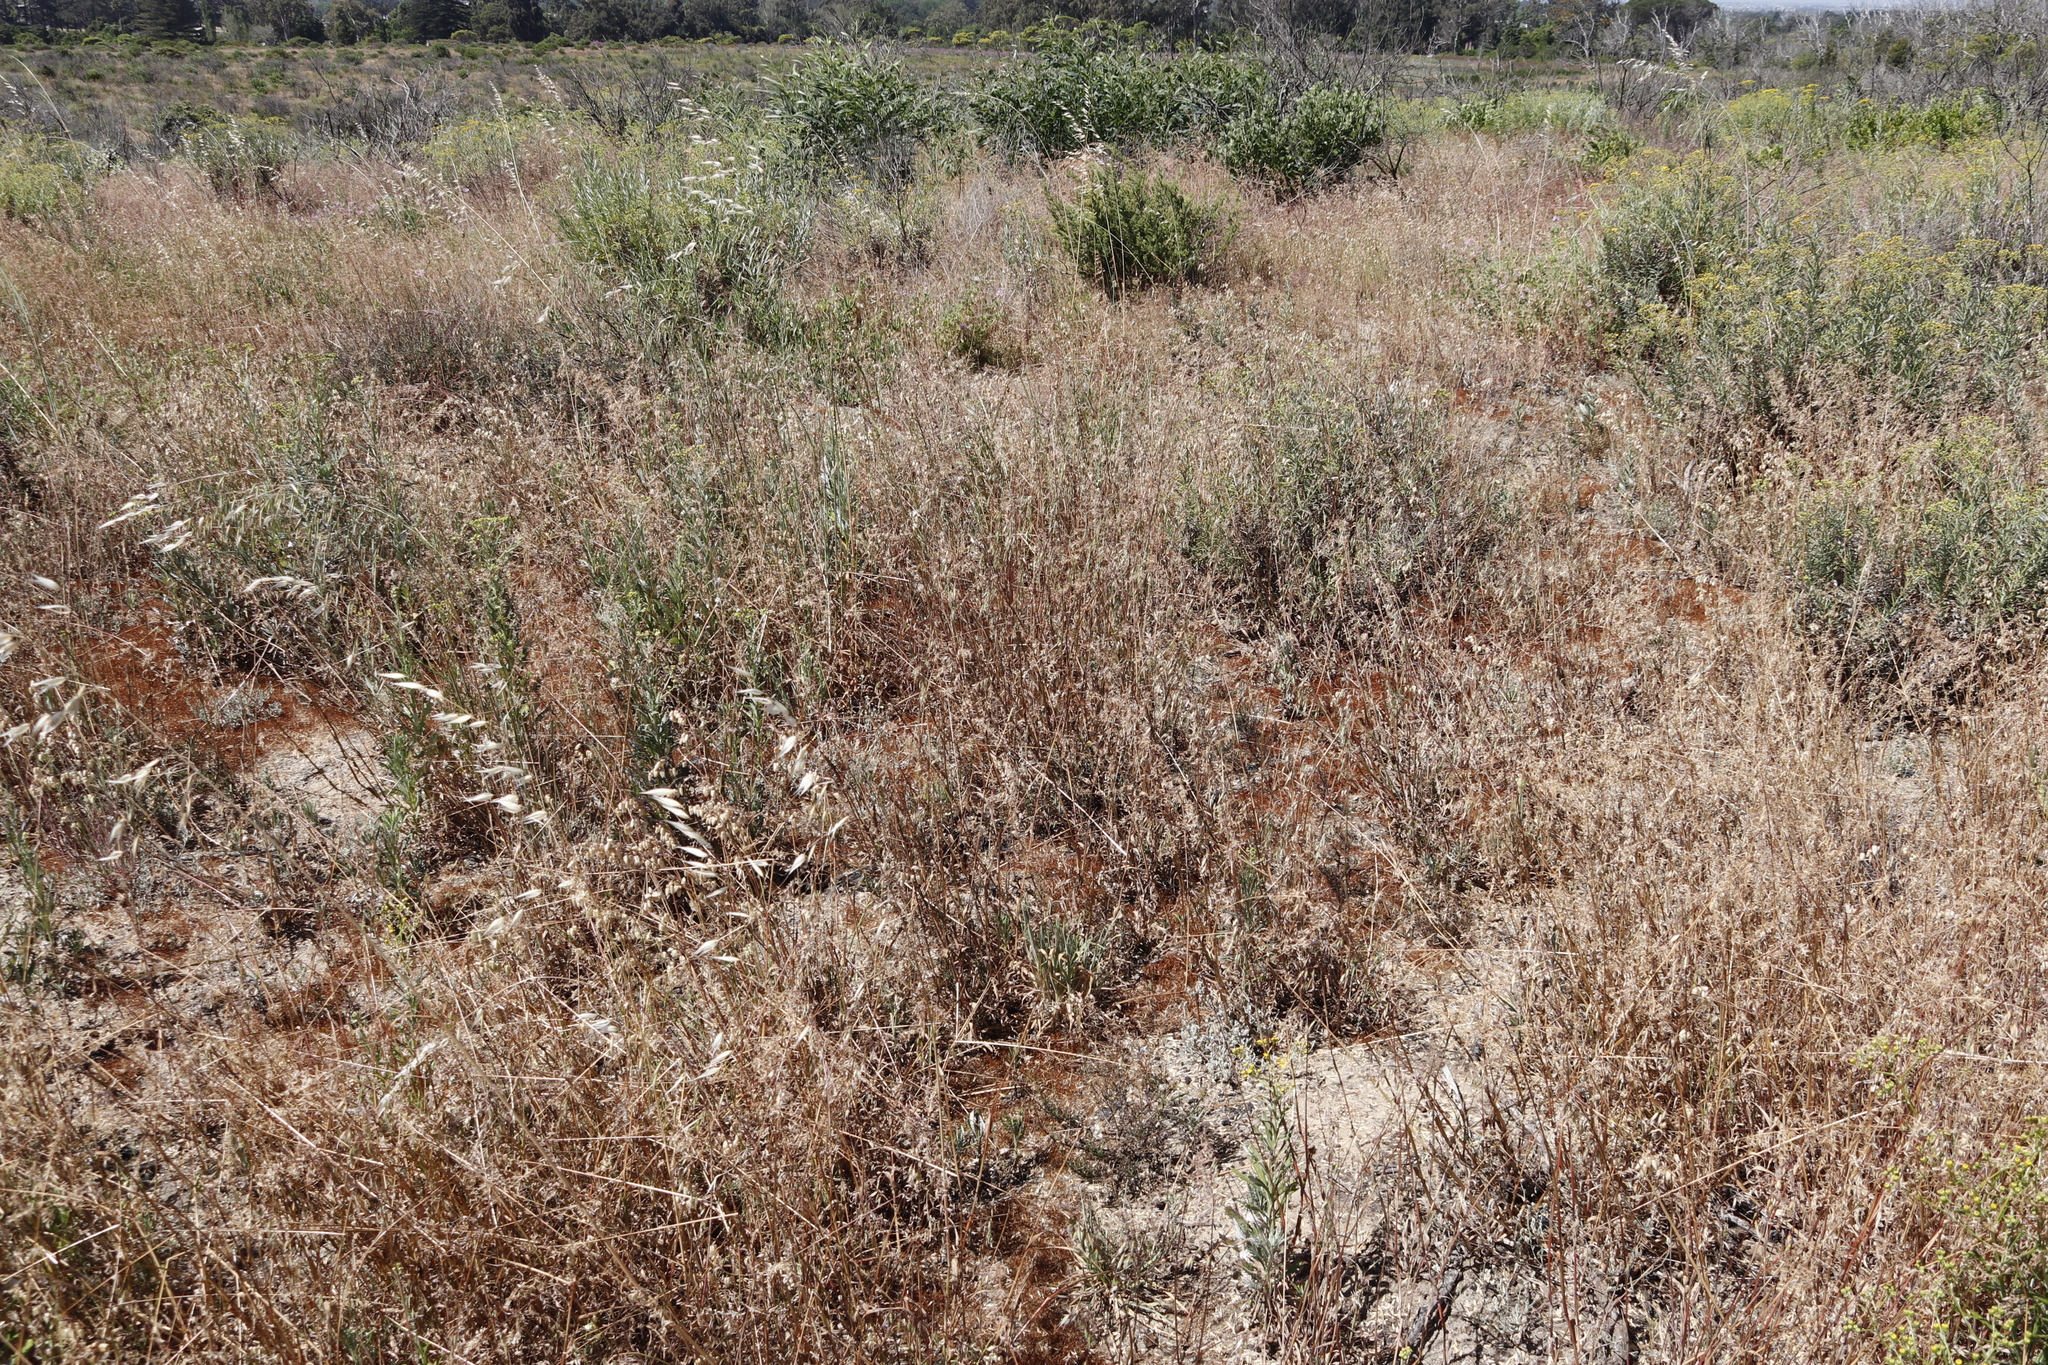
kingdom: Plantae
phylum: Tracheophyta
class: Liliopsida
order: Poales
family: Poaceae
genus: Briza
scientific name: Briza maxima
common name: Big quakinggrass
